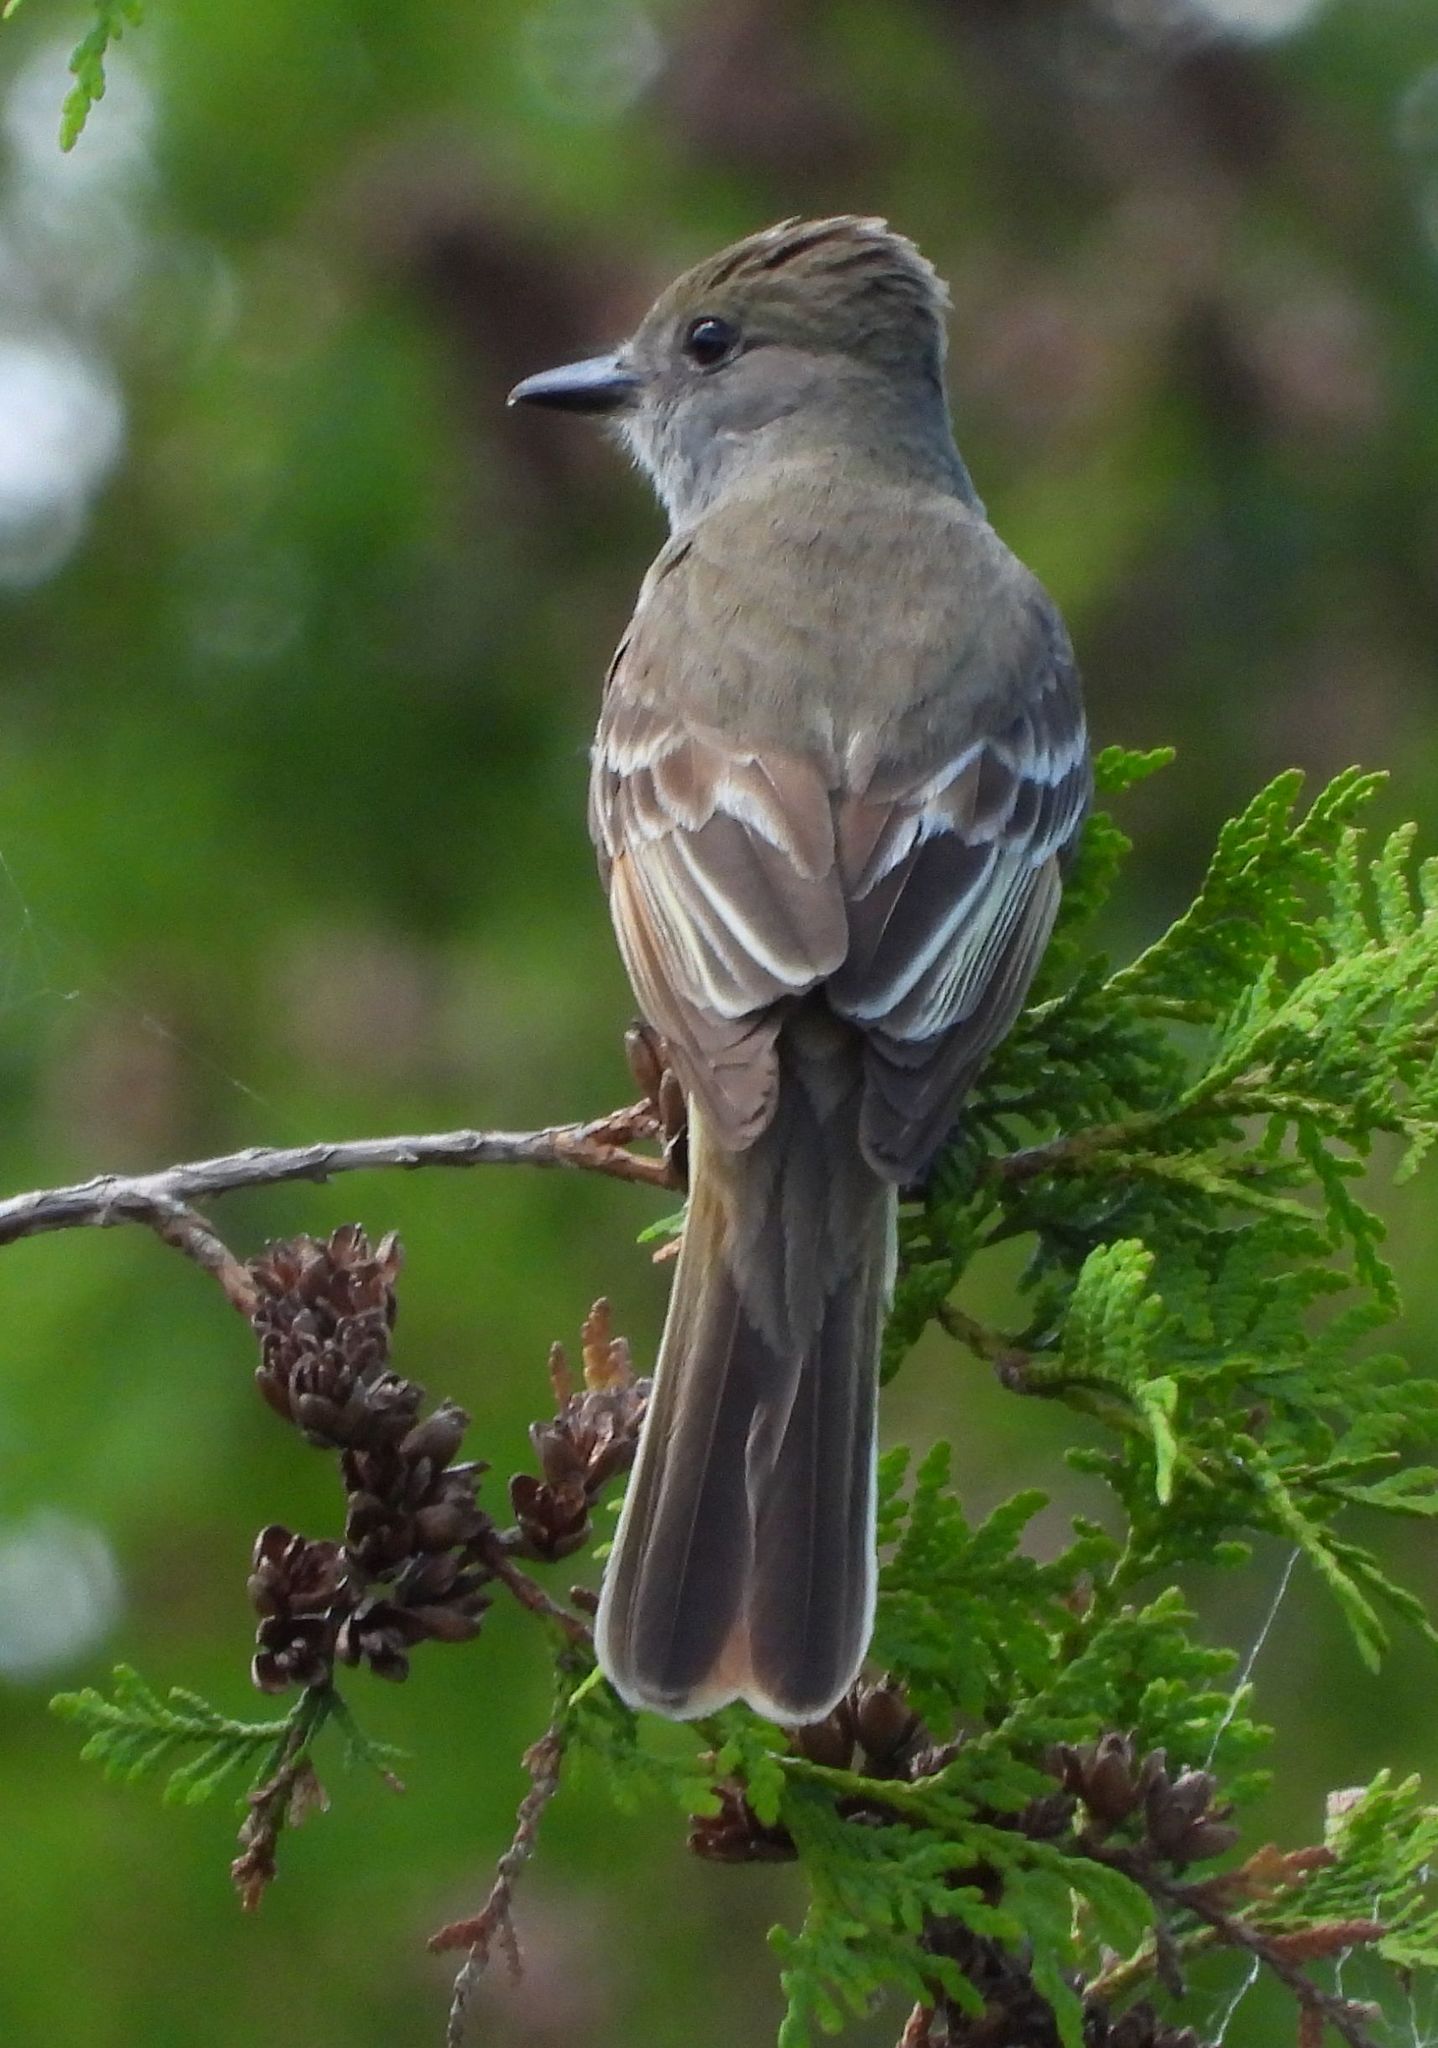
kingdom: Animalia
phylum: Chordata
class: Aves
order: Passeriformes
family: Tyrannidae
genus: Myiarchus
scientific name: Myiarchus crinitus
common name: Great crested flycatcher
